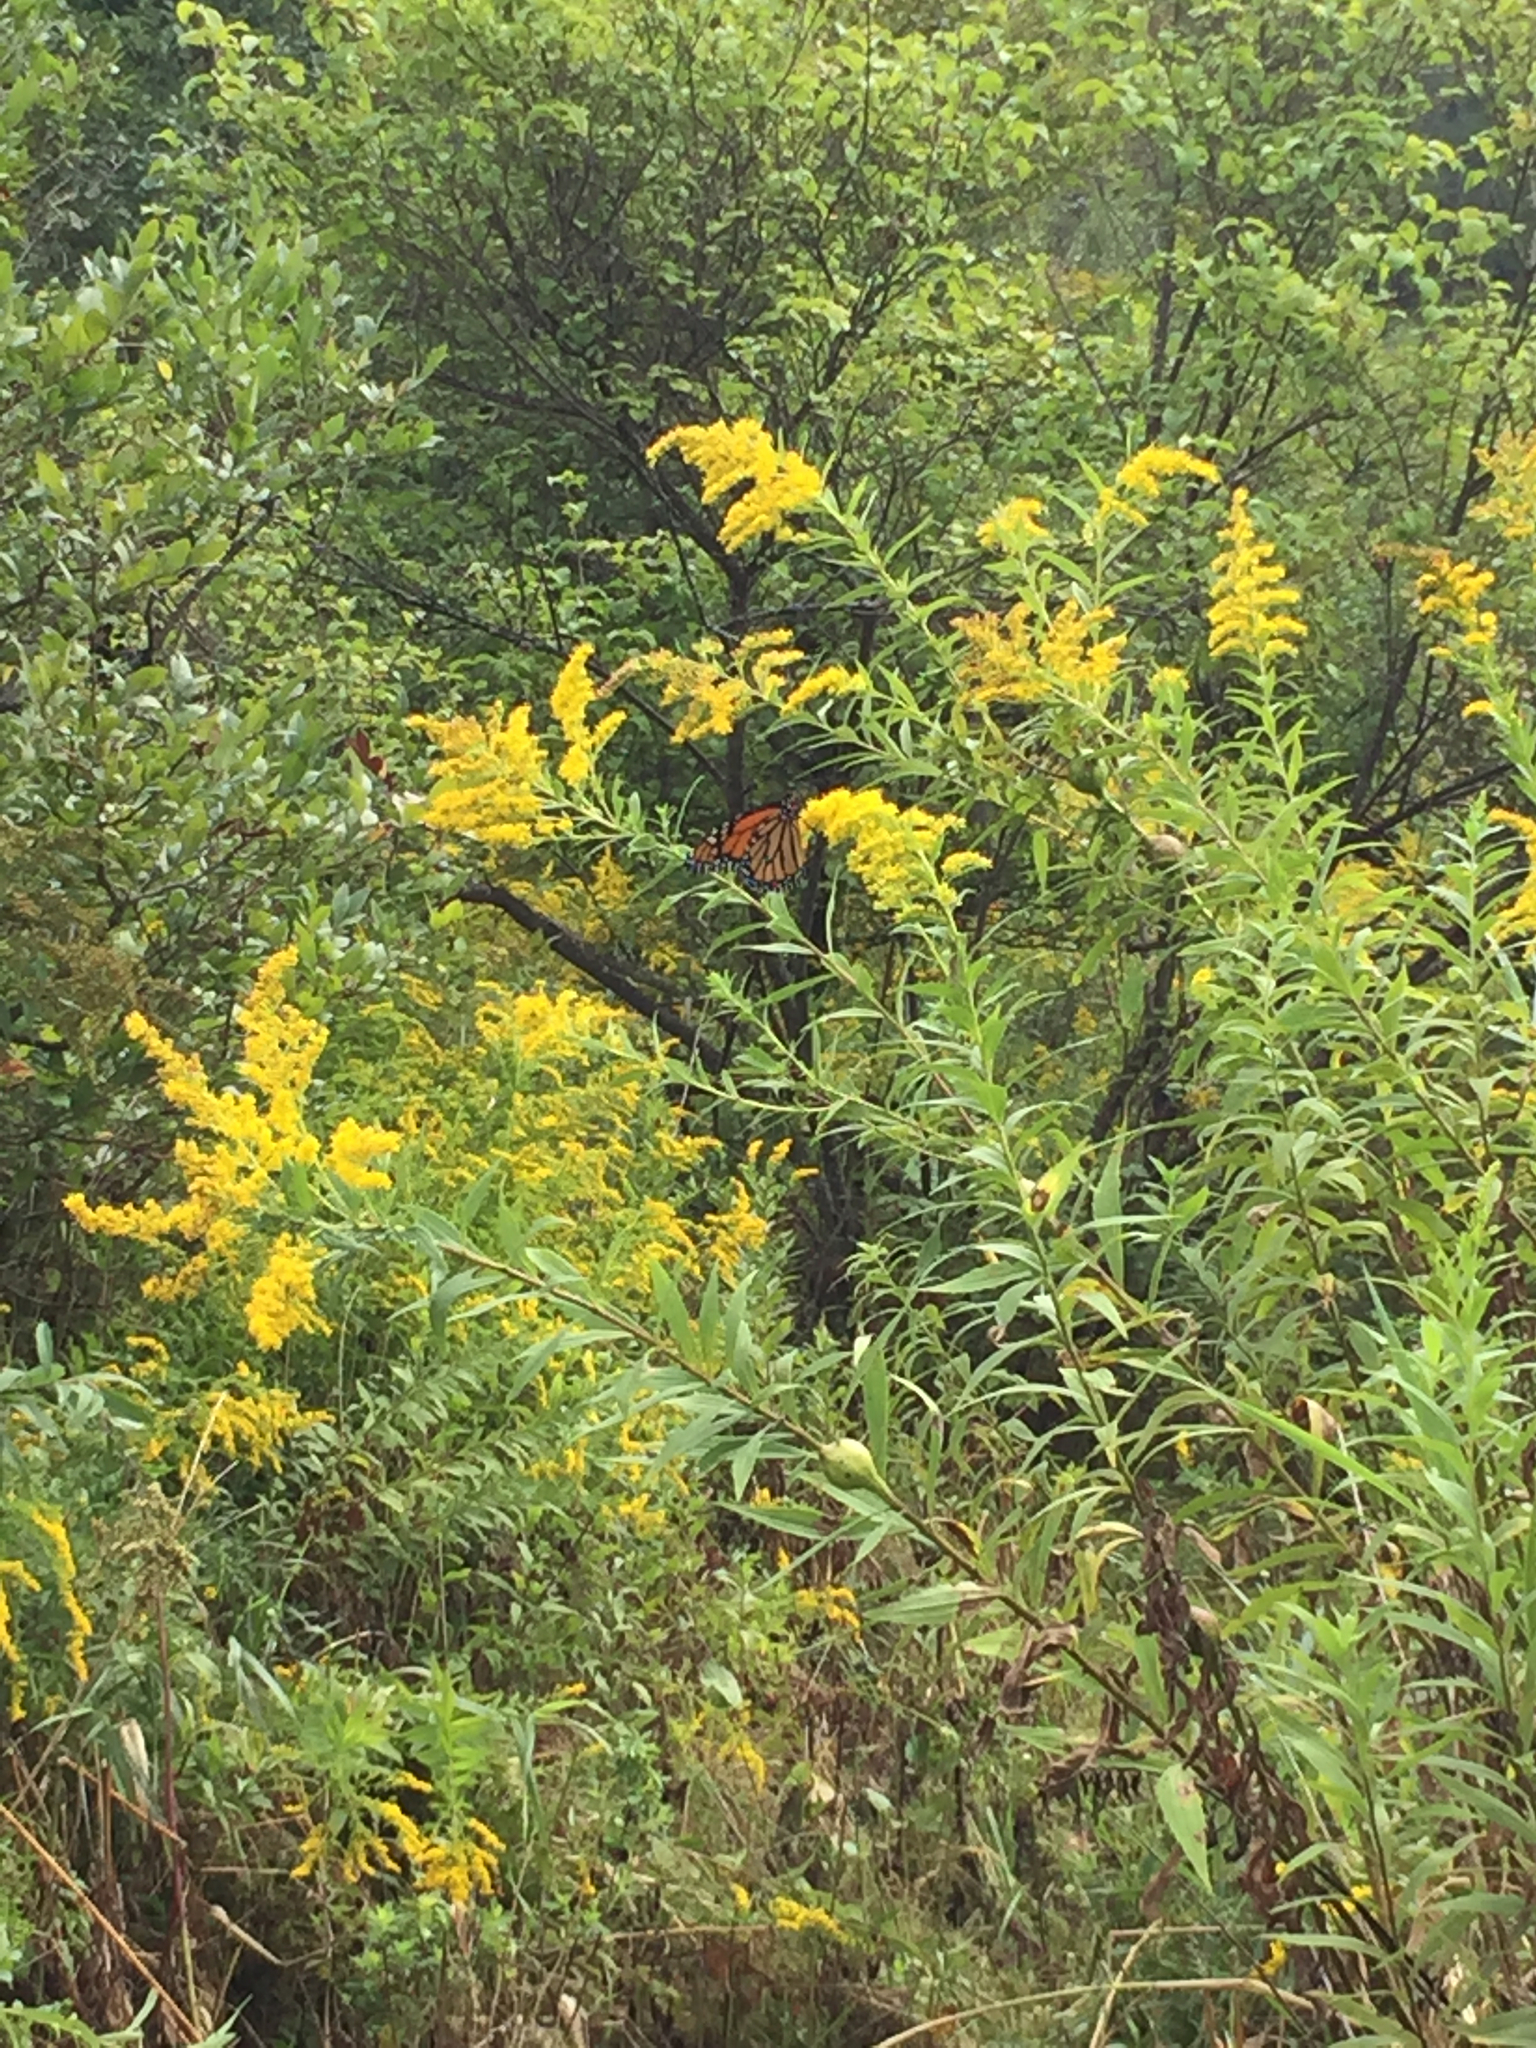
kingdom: Animalia
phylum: Arthropoda
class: Insecta
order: Lepidoptera
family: Nymphalidae
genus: Danaus
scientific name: Danaus plexippus
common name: Monarch
